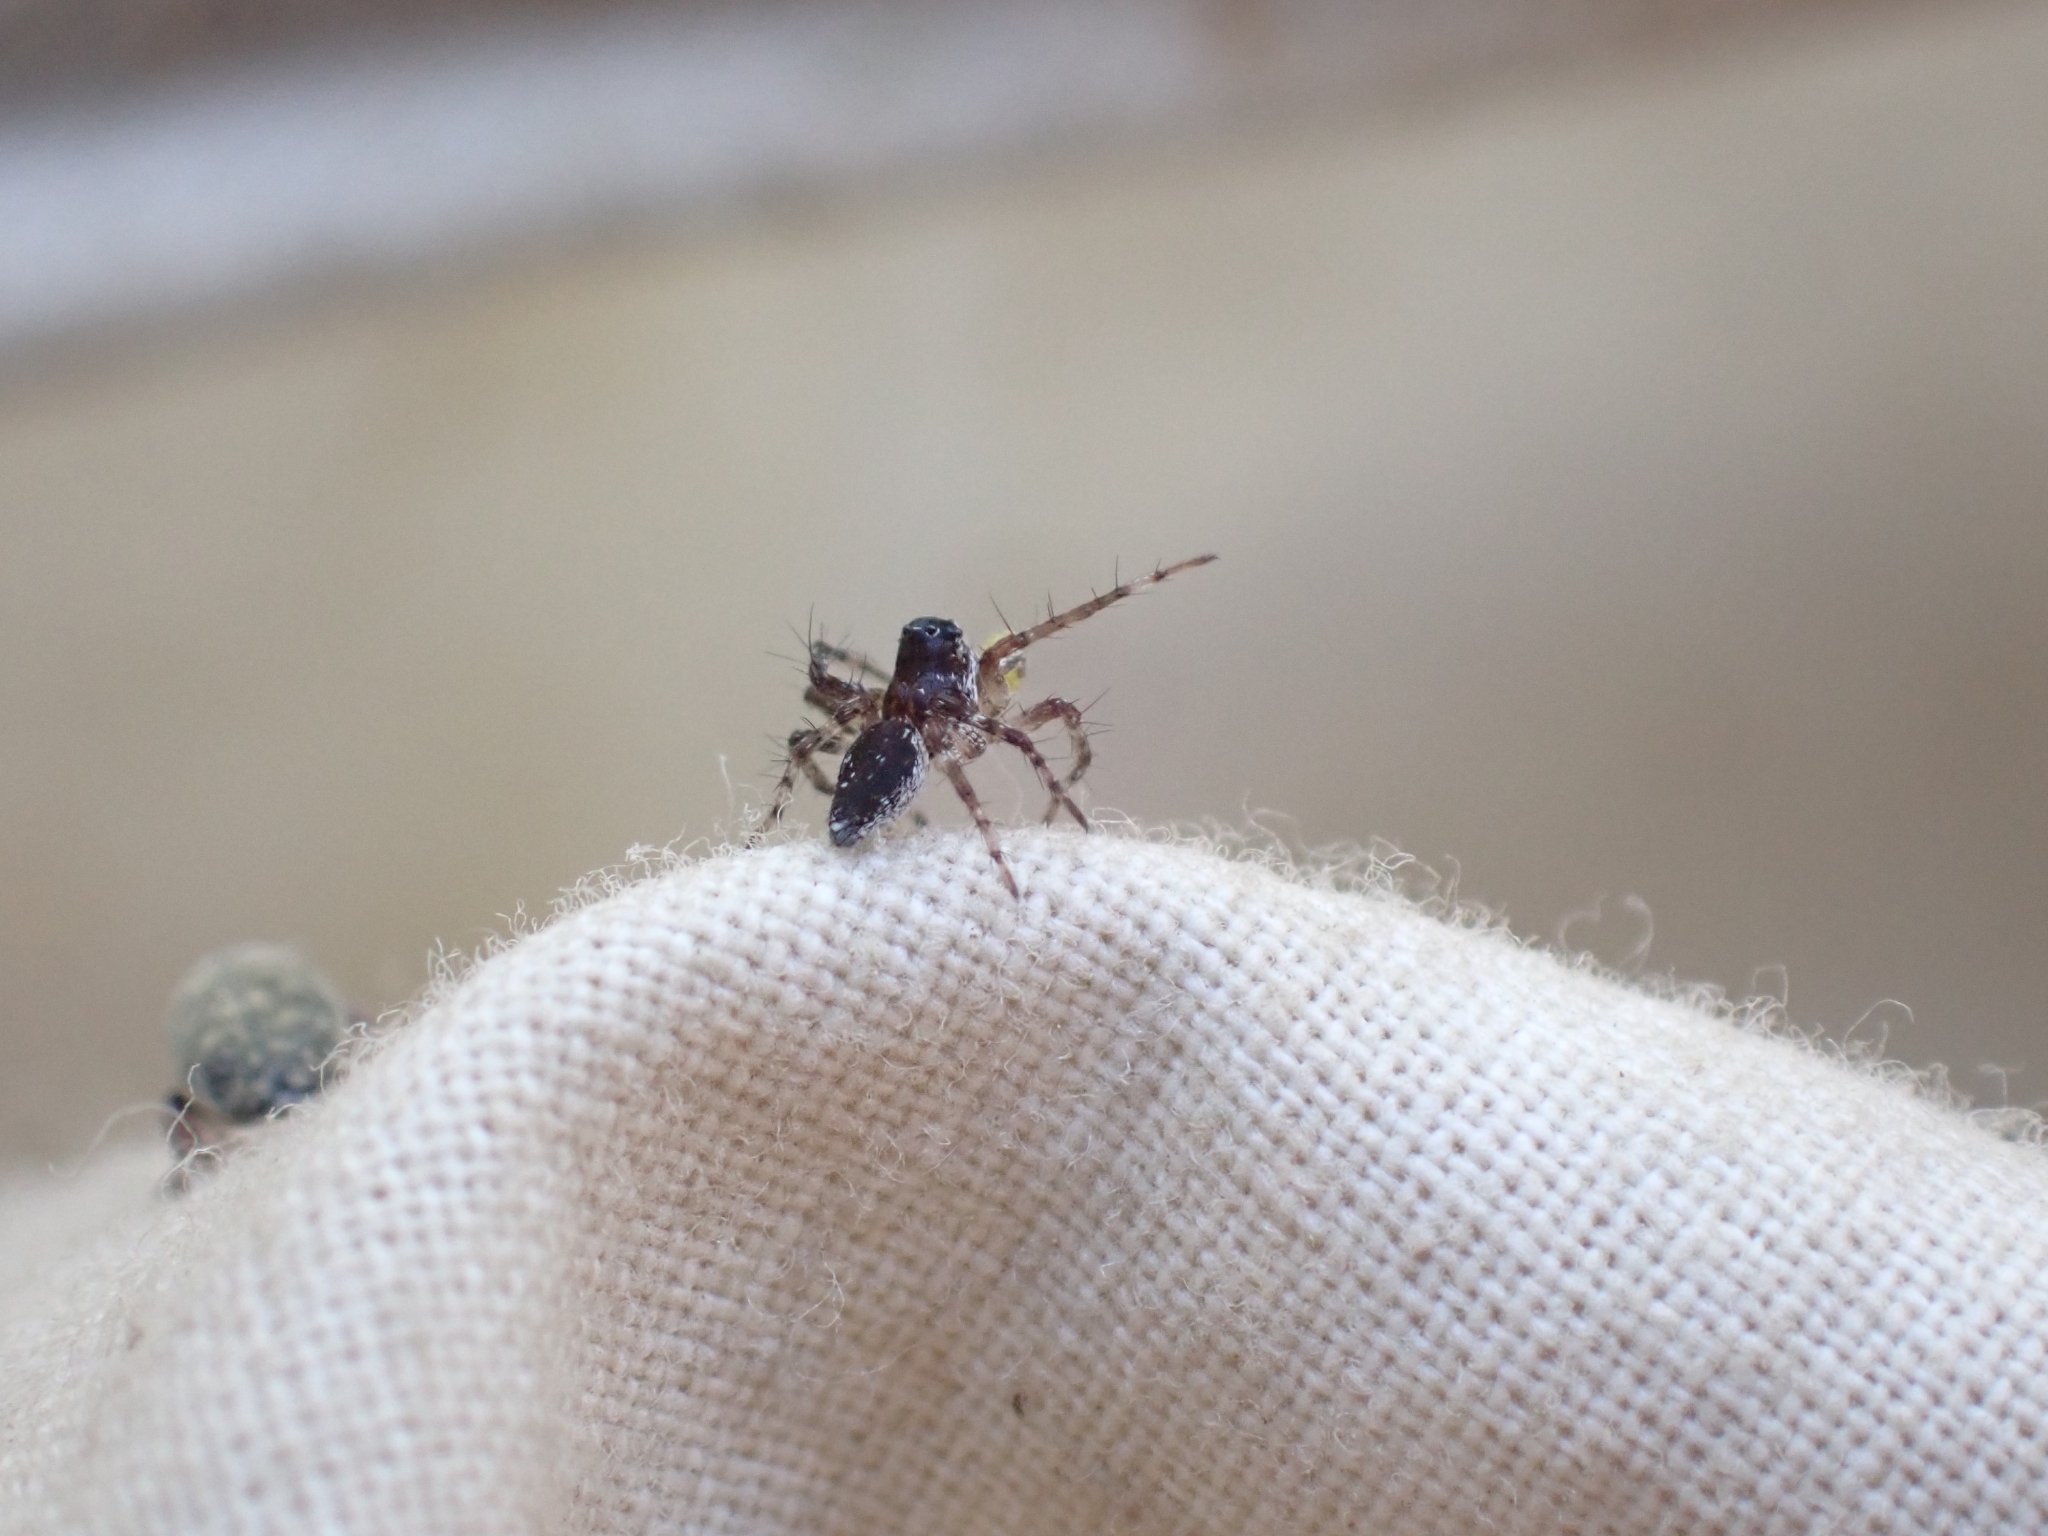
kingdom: Animalia
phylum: Arthropoda
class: Arachnida
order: Araneae
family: Oxyopidae
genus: Oxyopes
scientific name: Oxyopes scalaris
